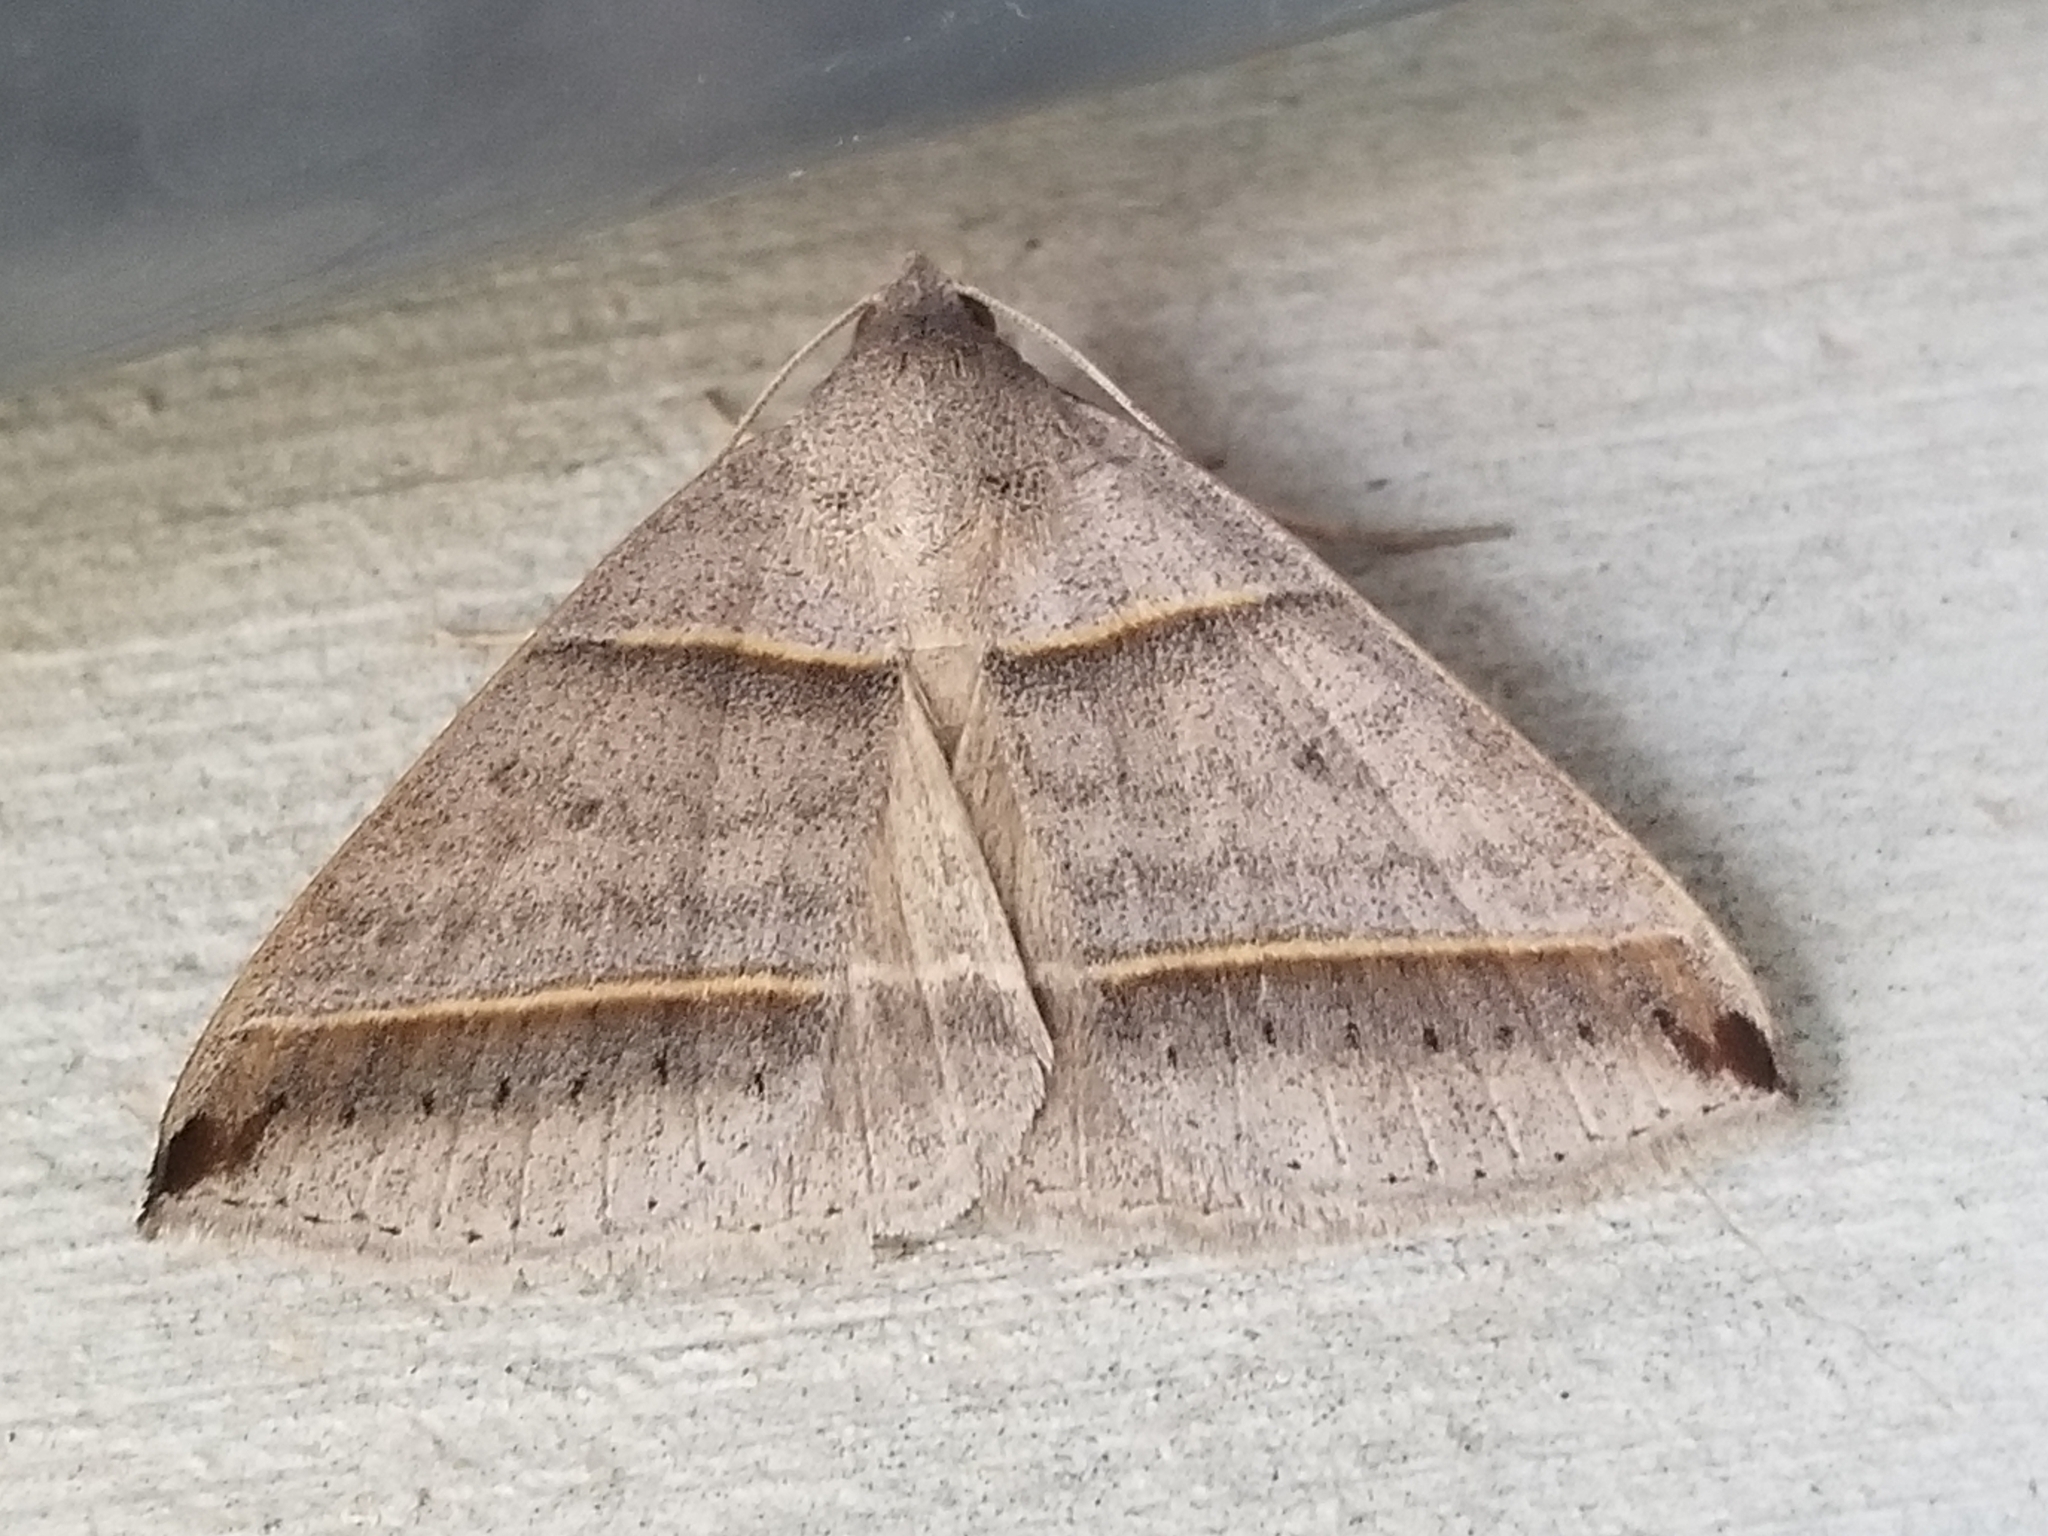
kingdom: Animalia
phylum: Arthropoda
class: Insecta
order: Lepidoptera
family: Erebidae
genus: Ptichodis
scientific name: Ptichodis vinculum
